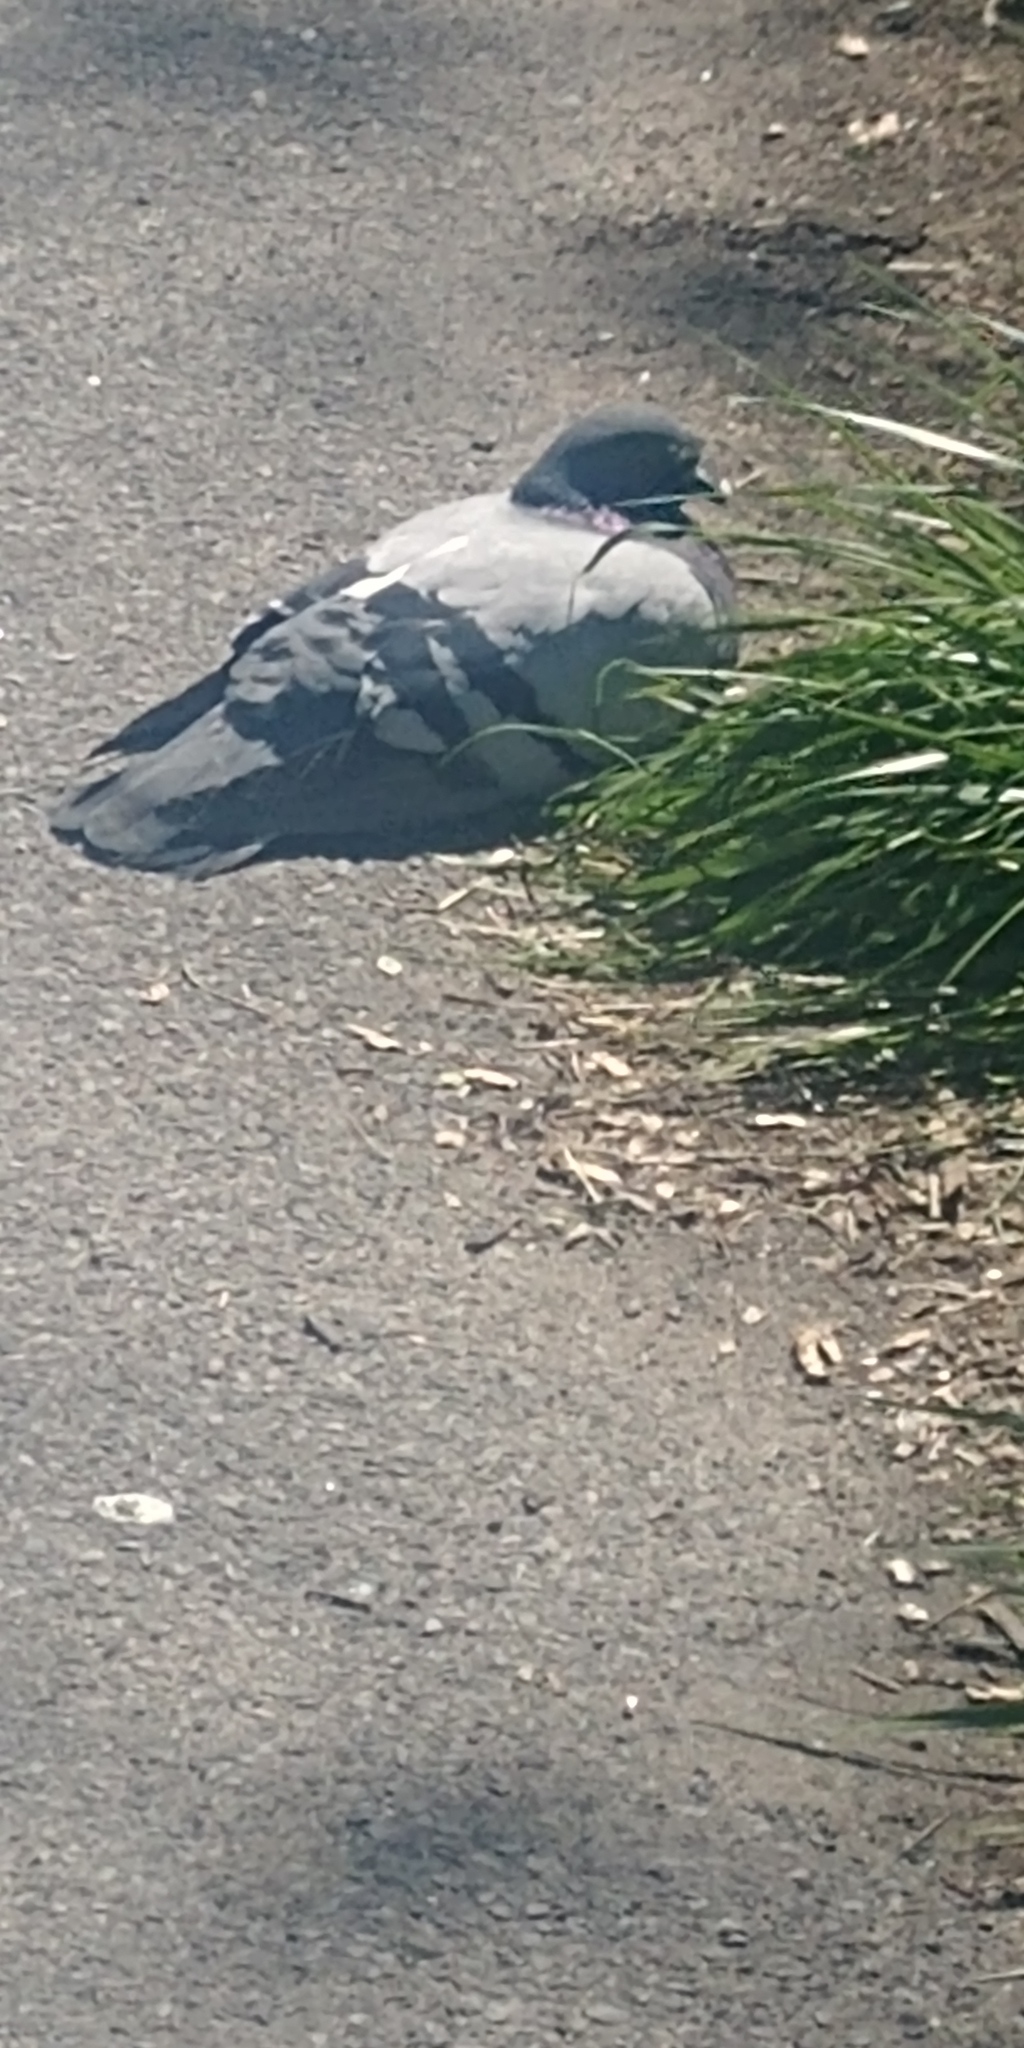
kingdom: Animalia
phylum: Chordata
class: Aves
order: Columbiformes
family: Columbidae
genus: Columba
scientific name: Columba livia
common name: Rock pigeon
